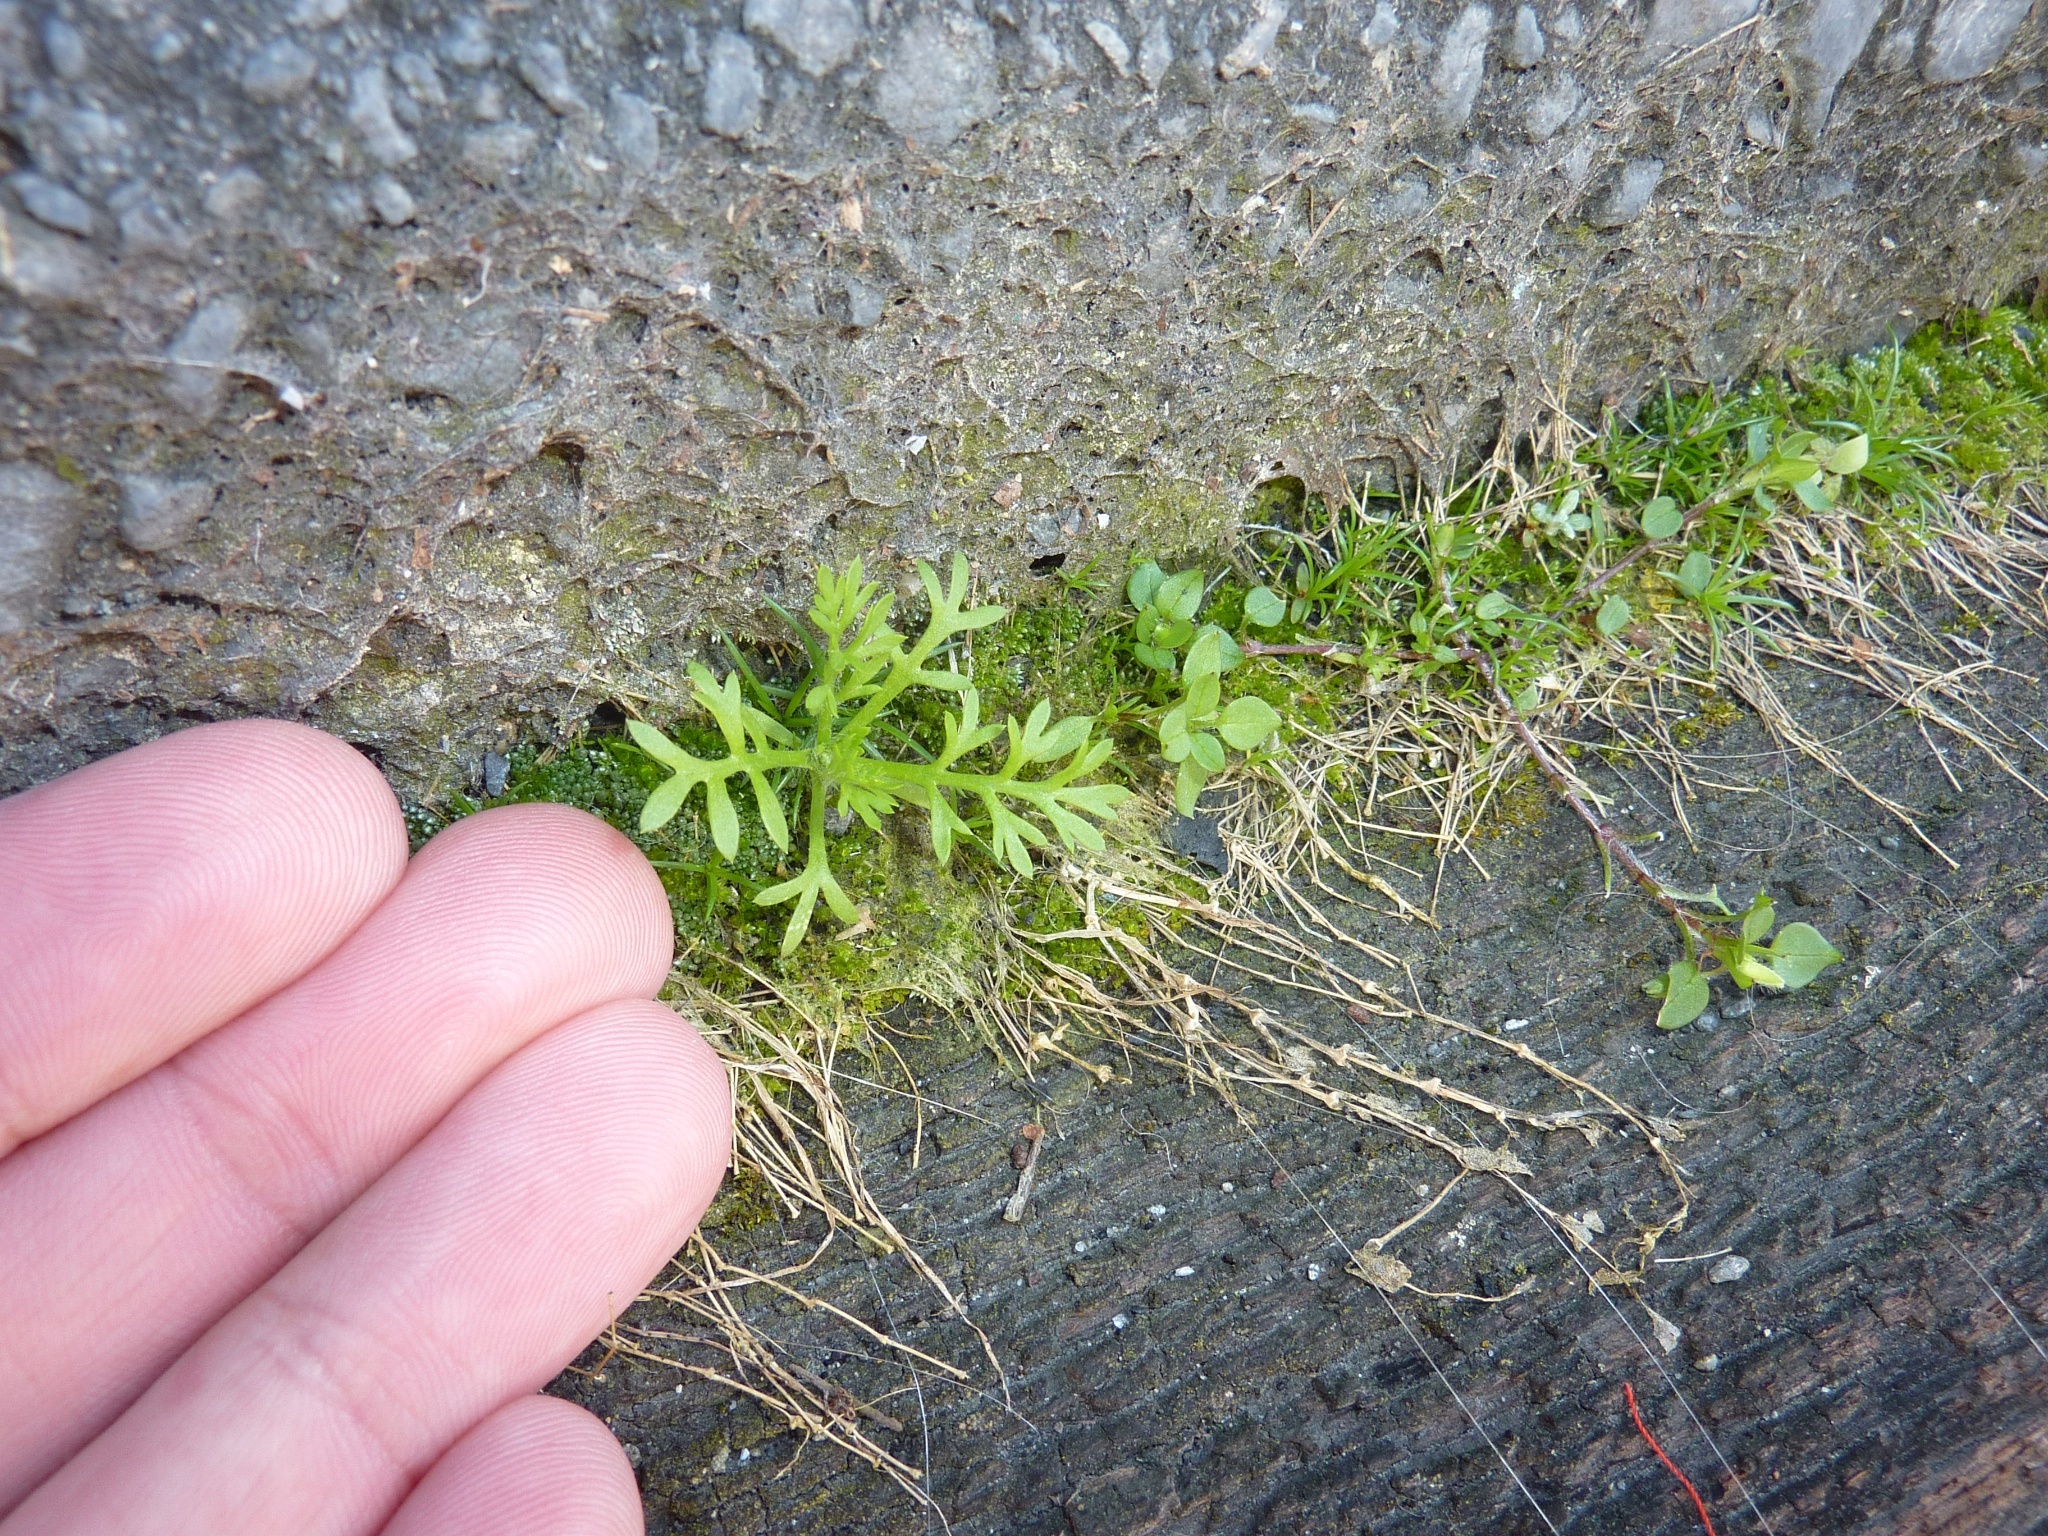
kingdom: Plantae
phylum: Tracheophyta
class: Magnoliopsida
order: Brassicales
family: Brassicaceae
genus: Lepidium
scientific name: Lepidium didymum
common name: Lesser swinecress
